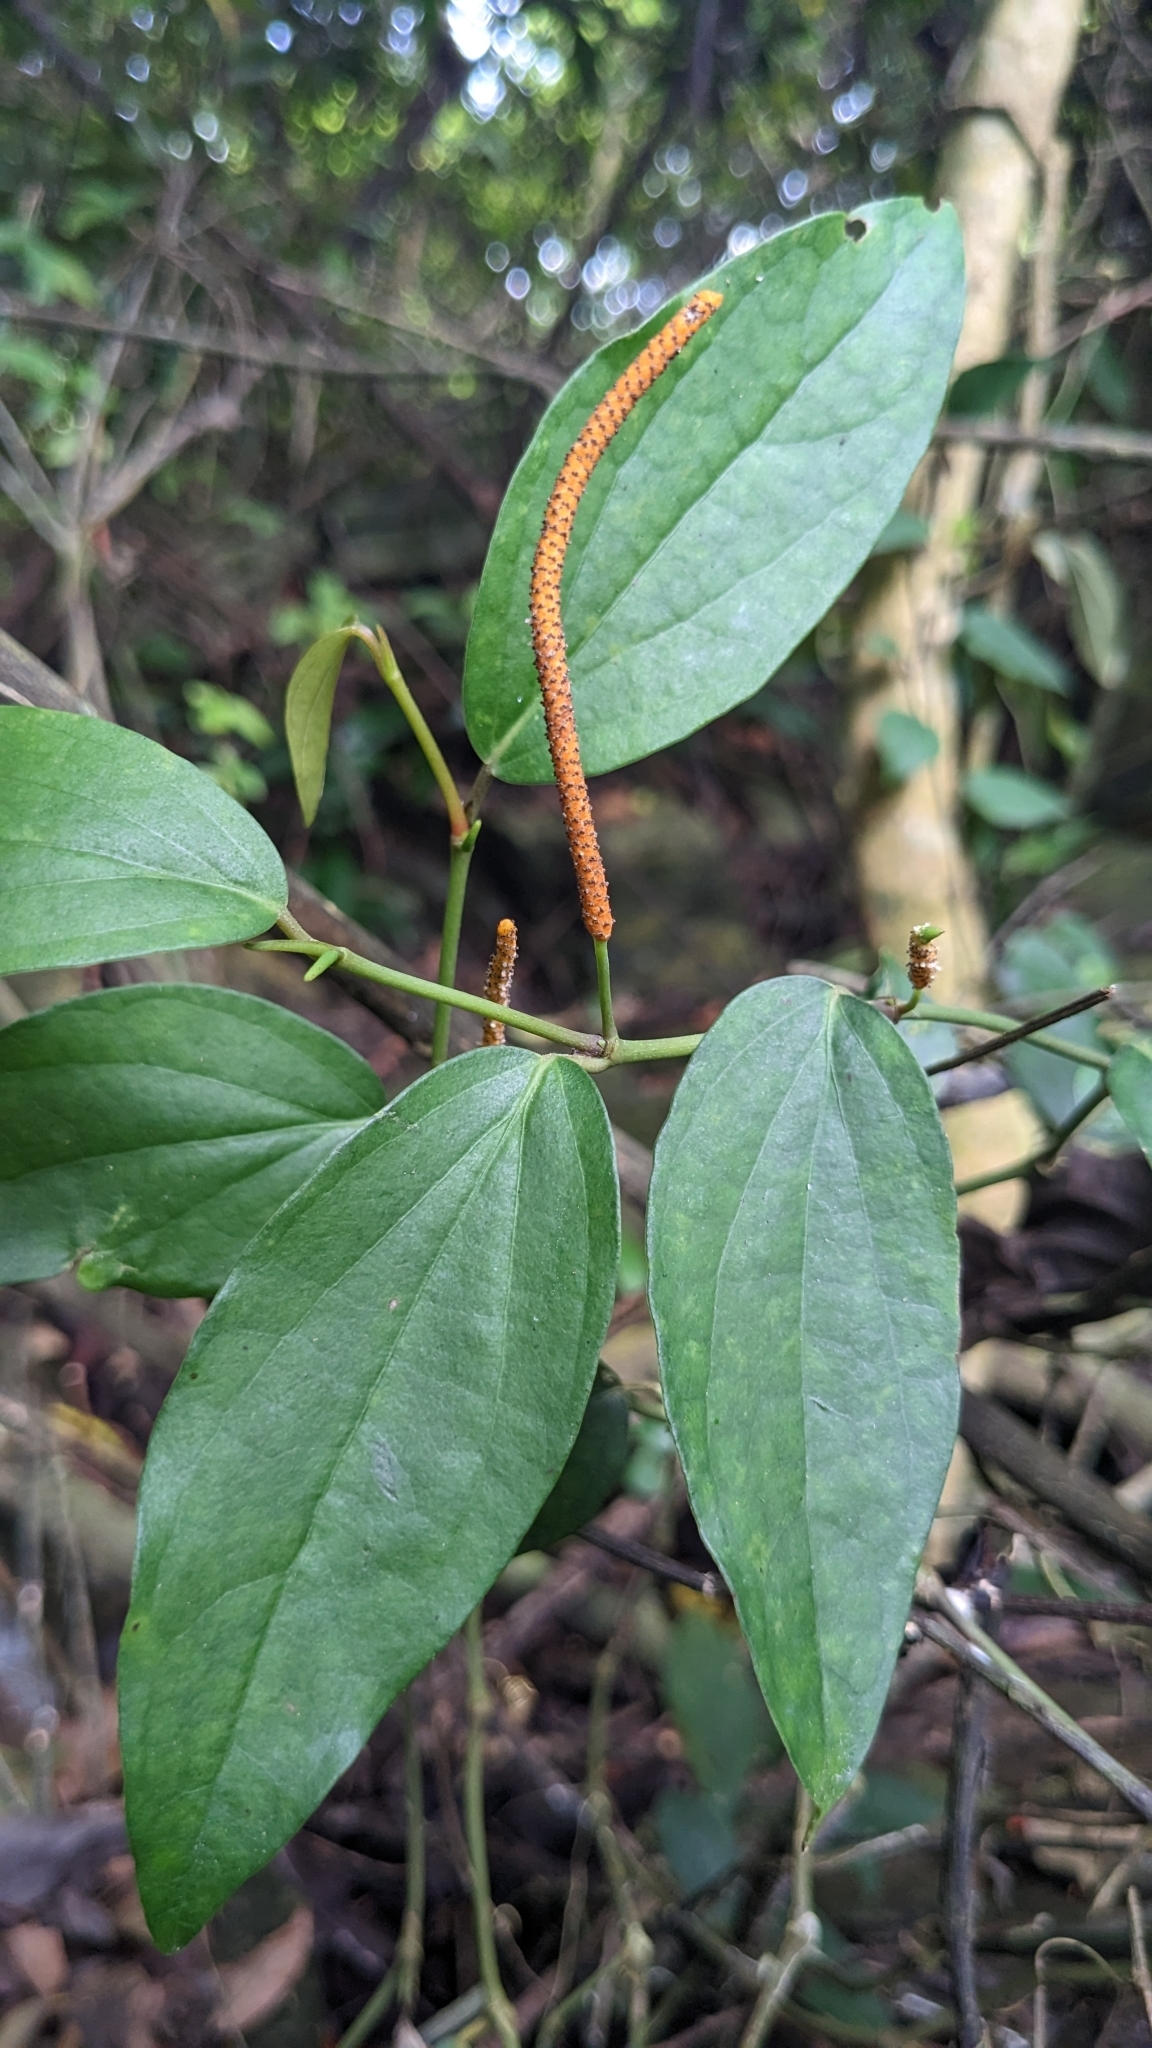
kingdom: Plantae
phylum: Tracheophyta
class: Magnoliopsida
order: Piperales
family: Piperaceae
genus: Piper
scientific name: Piper kadsura
